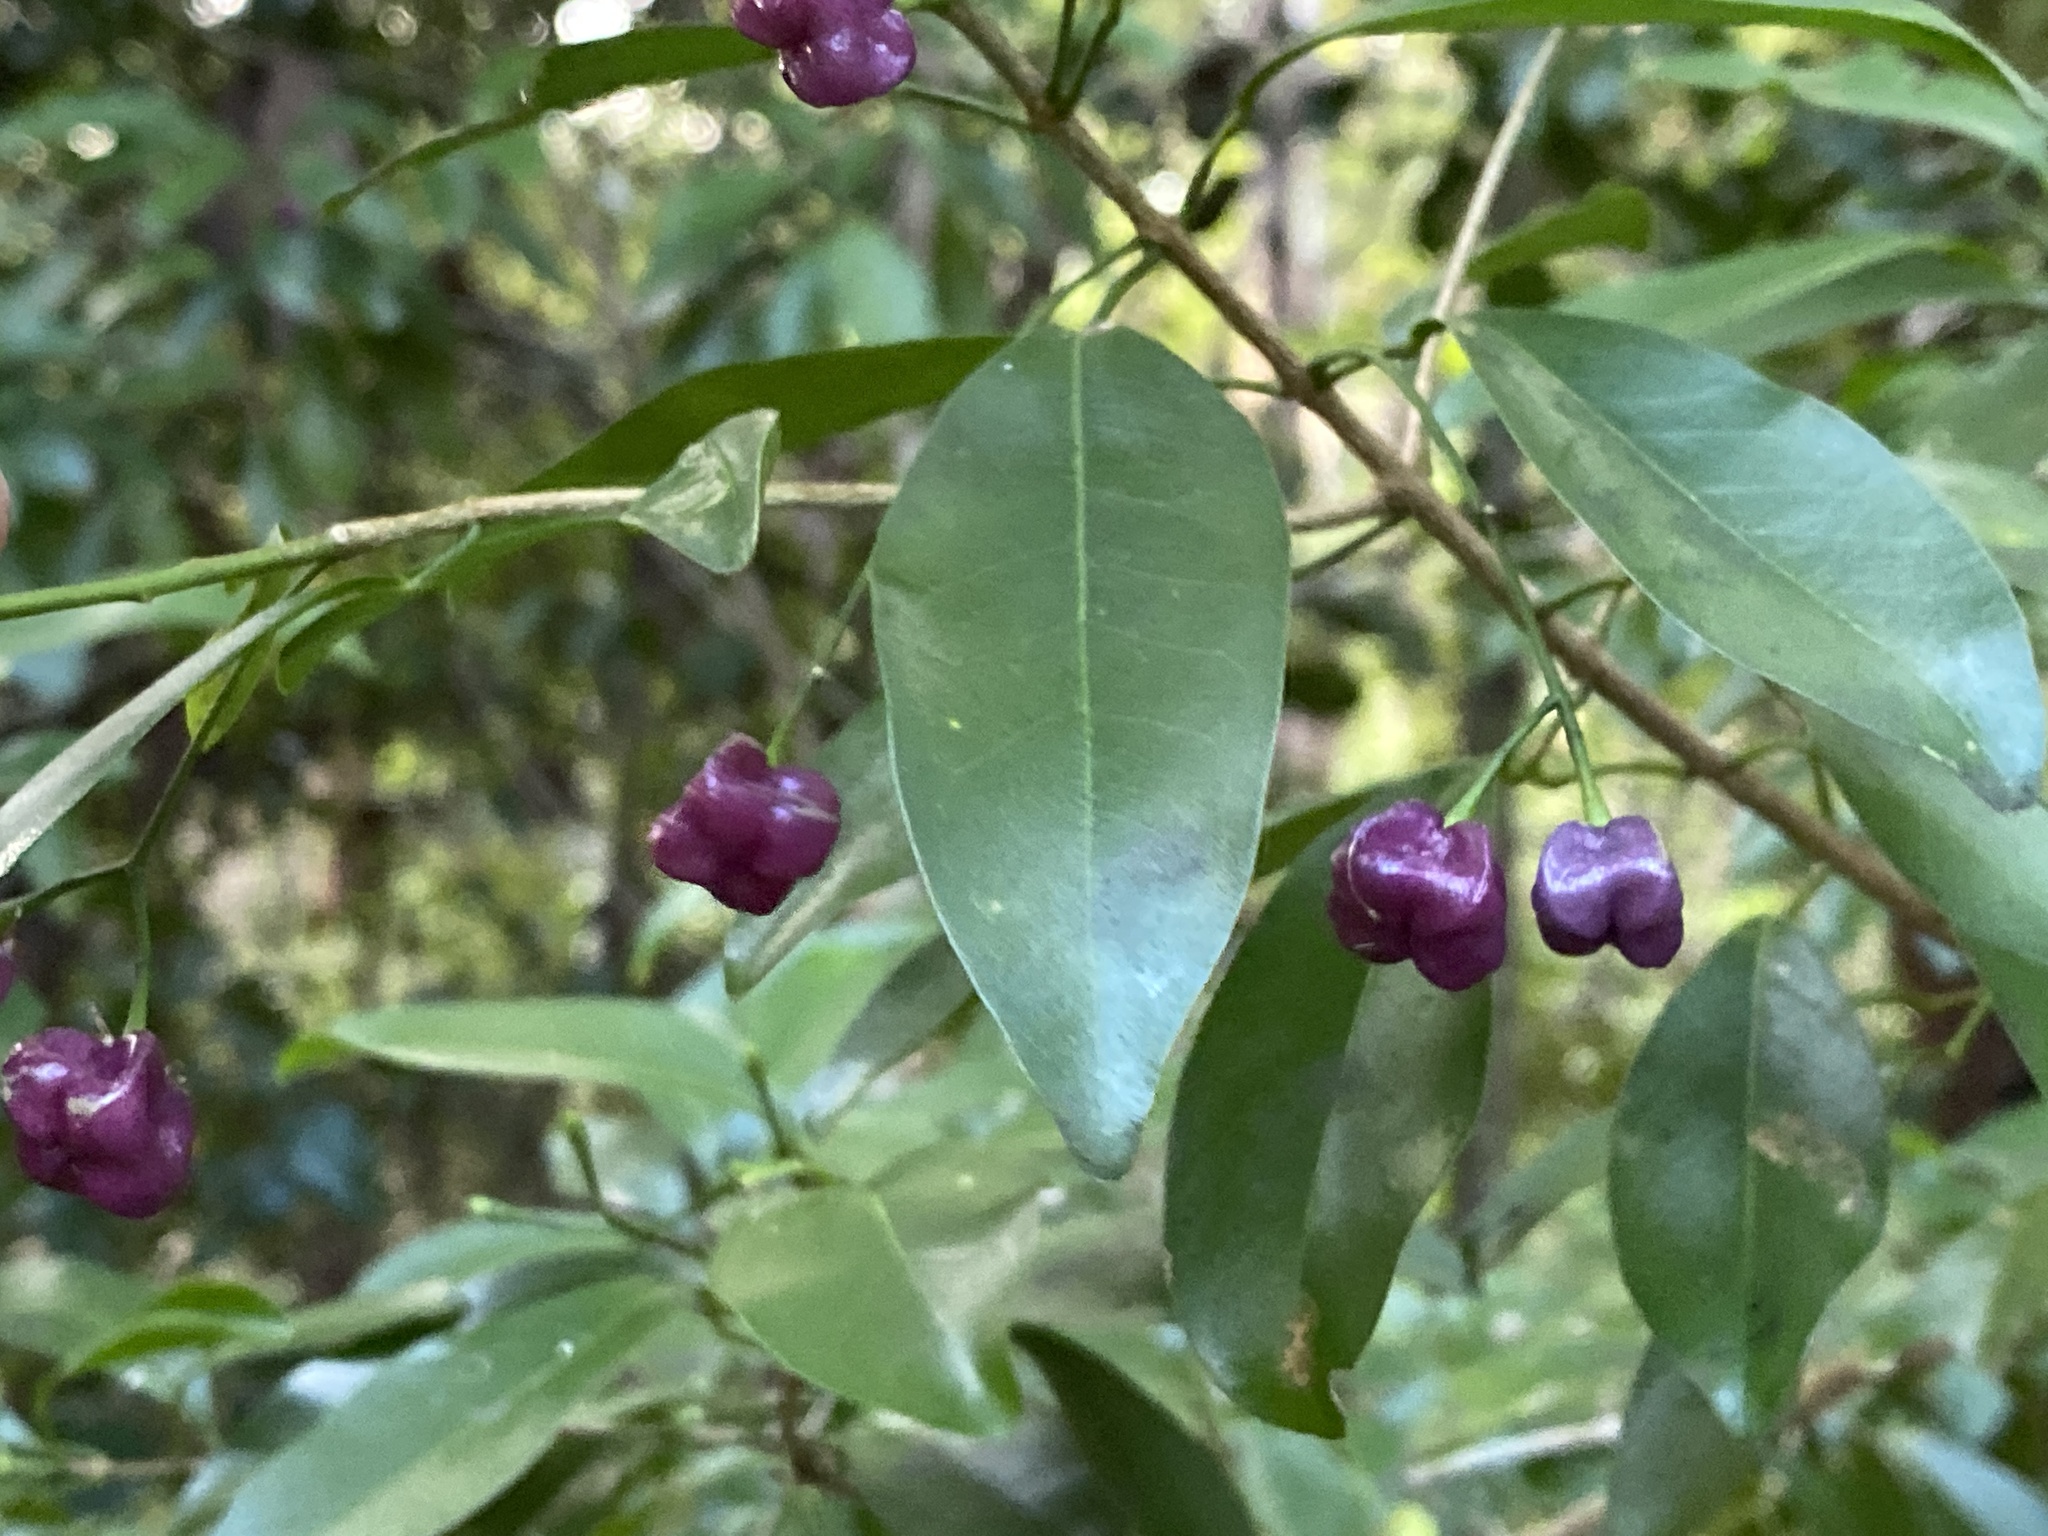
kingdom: Plantae
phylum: Tracheophyta
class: Magnoliopsida
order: Sapindales
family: Rutaceae
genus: Acronychia
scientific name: Acronychia laevis
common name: Hard aspen
